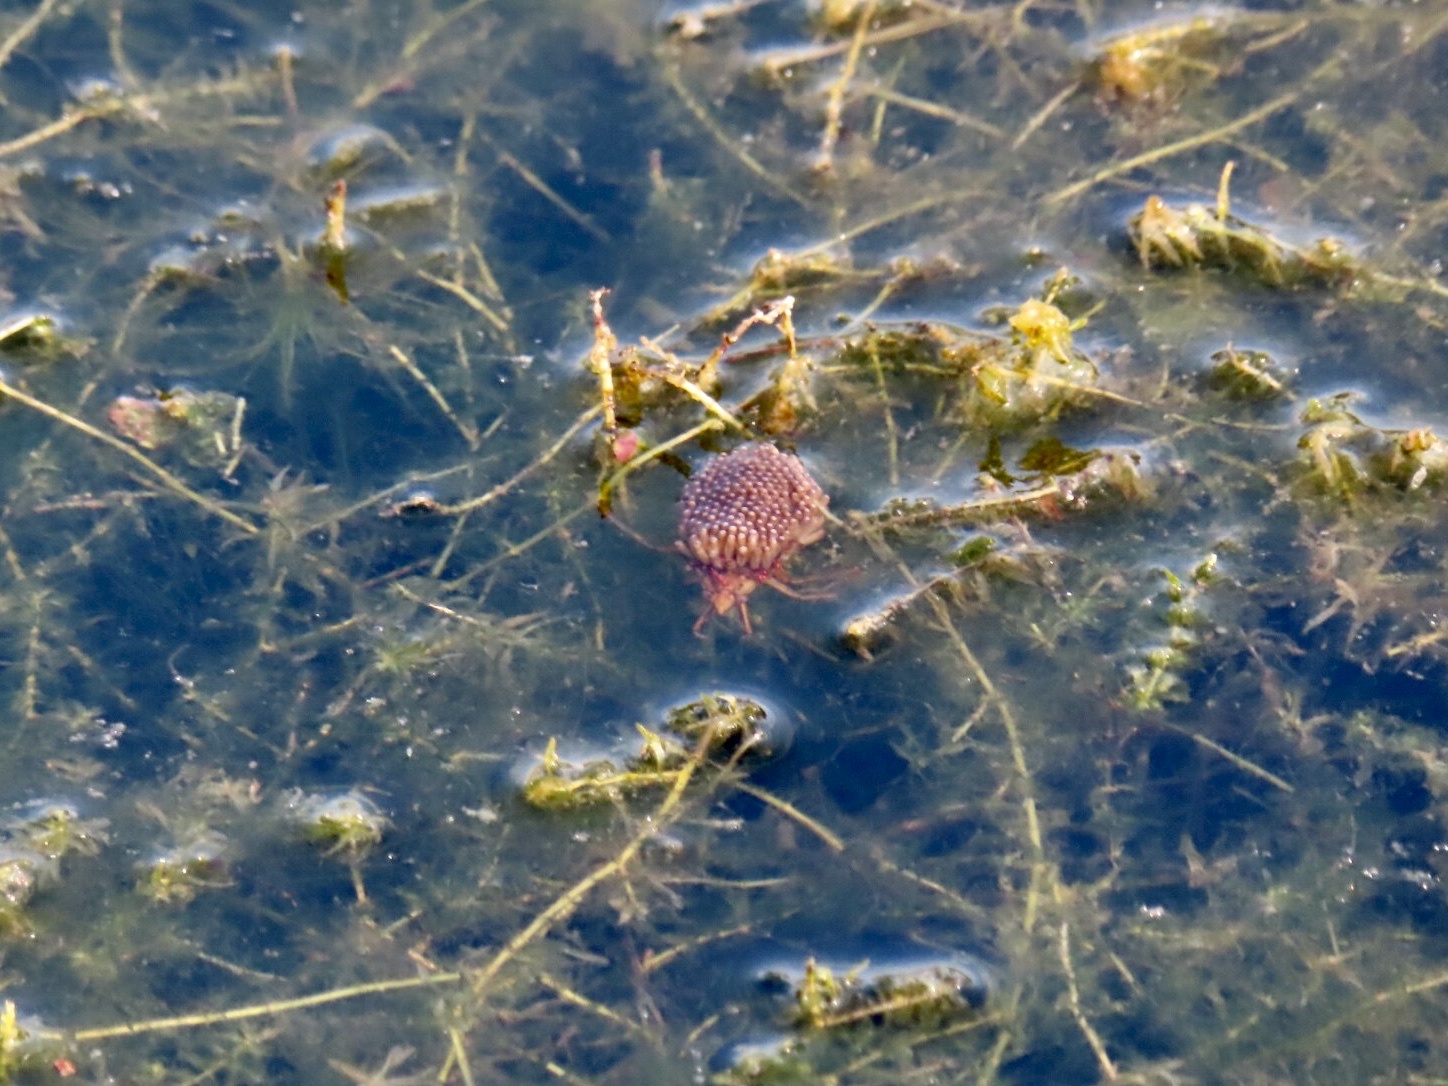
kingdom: Animalia
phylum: Arthropoda
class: Insecta
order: Hemiptera
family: Belostomatidae
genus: Belostoma
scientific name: Belostoma
